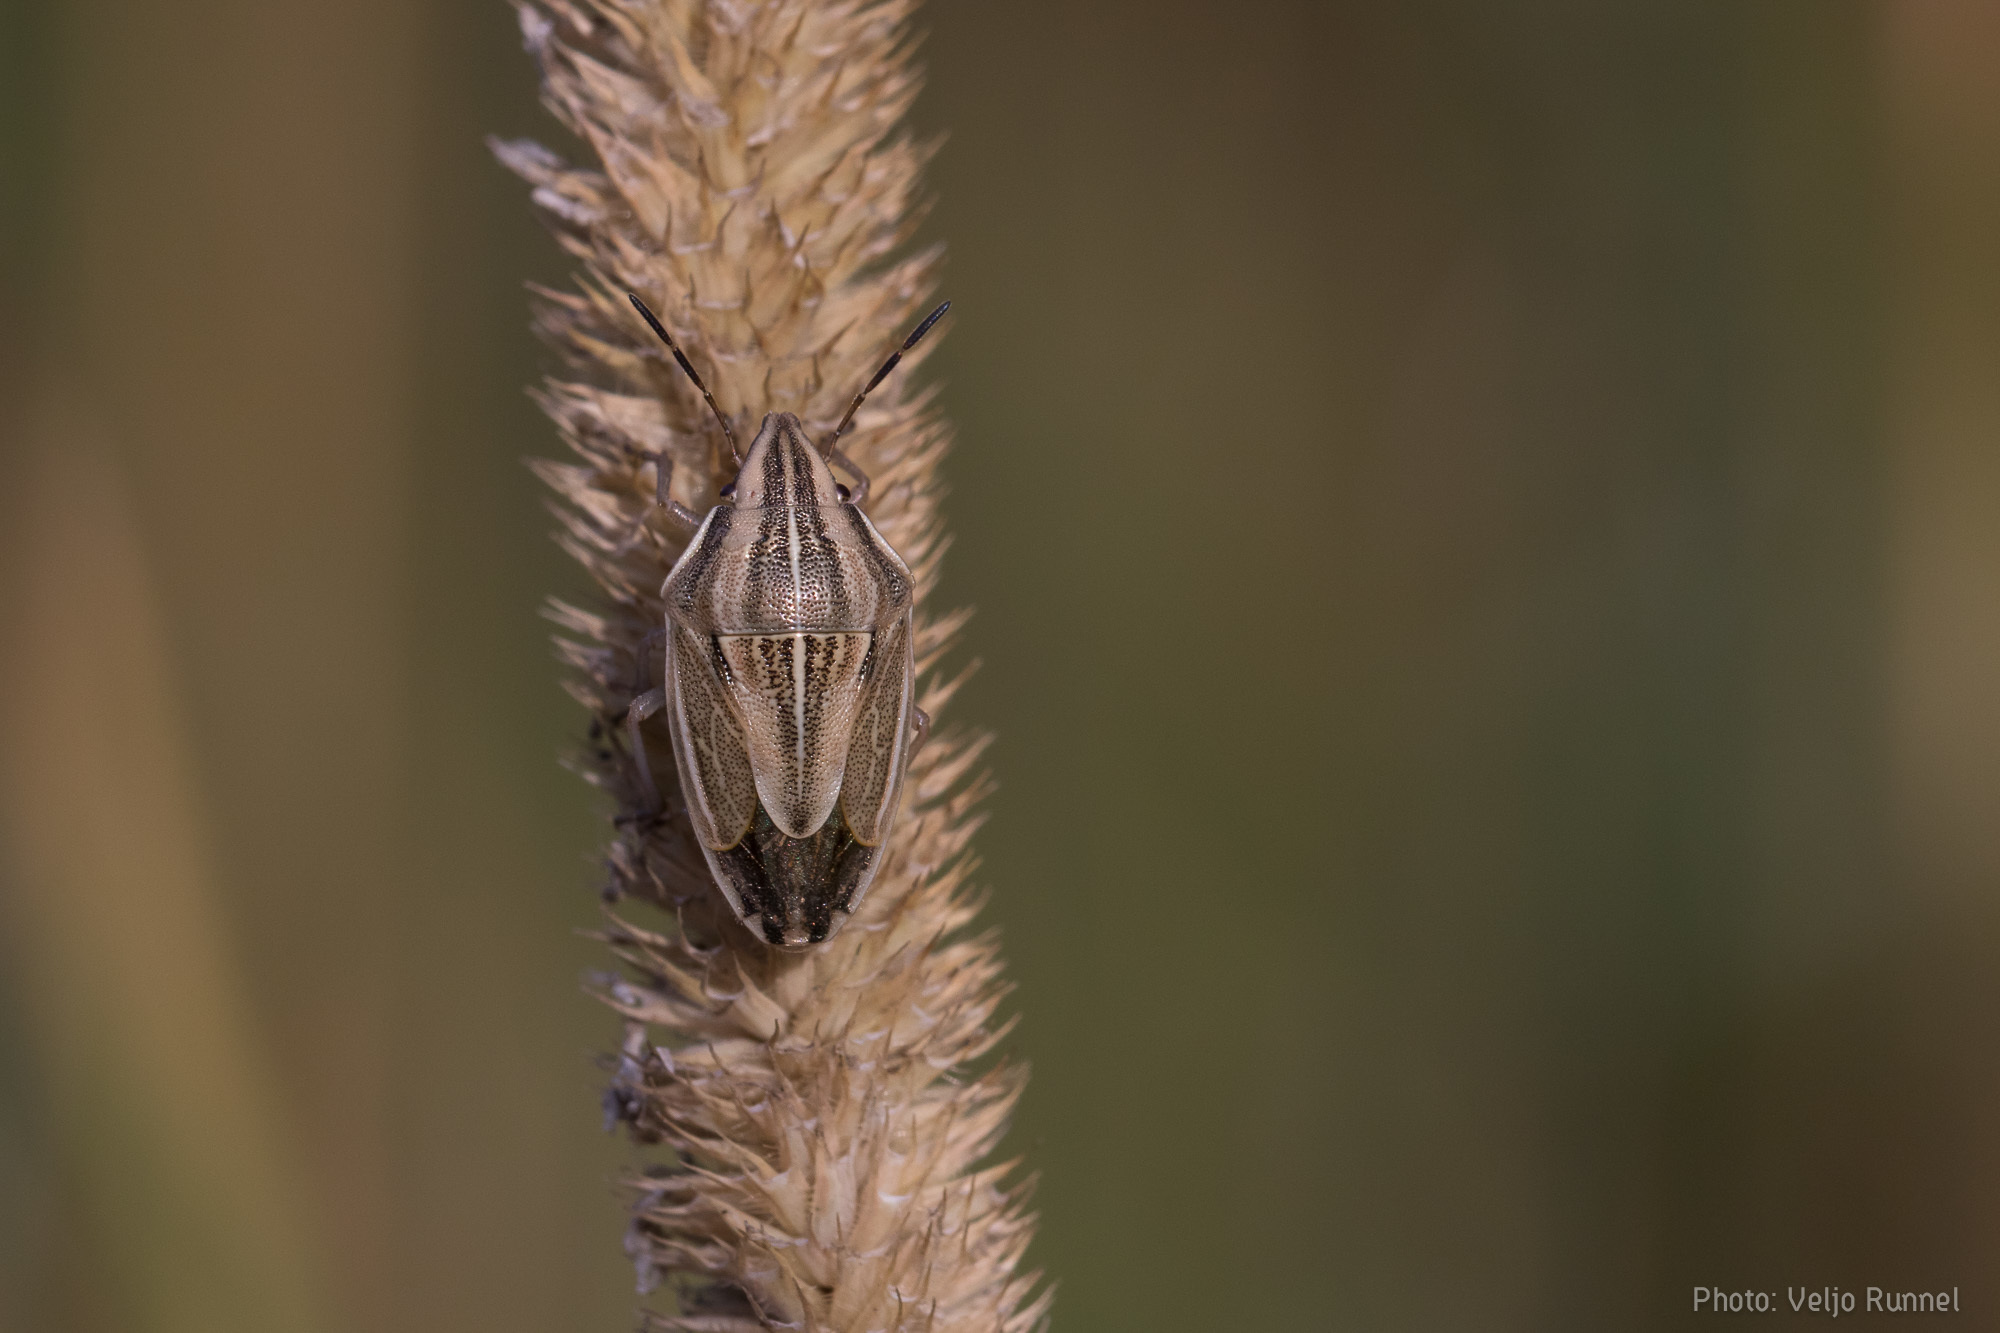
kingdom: Animalia
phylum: Arthropoda
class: Insecta
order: Hemiptera
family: Pentatomidae
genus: Aelia
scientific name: Aelia acuminata
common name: Bishop's mitre
